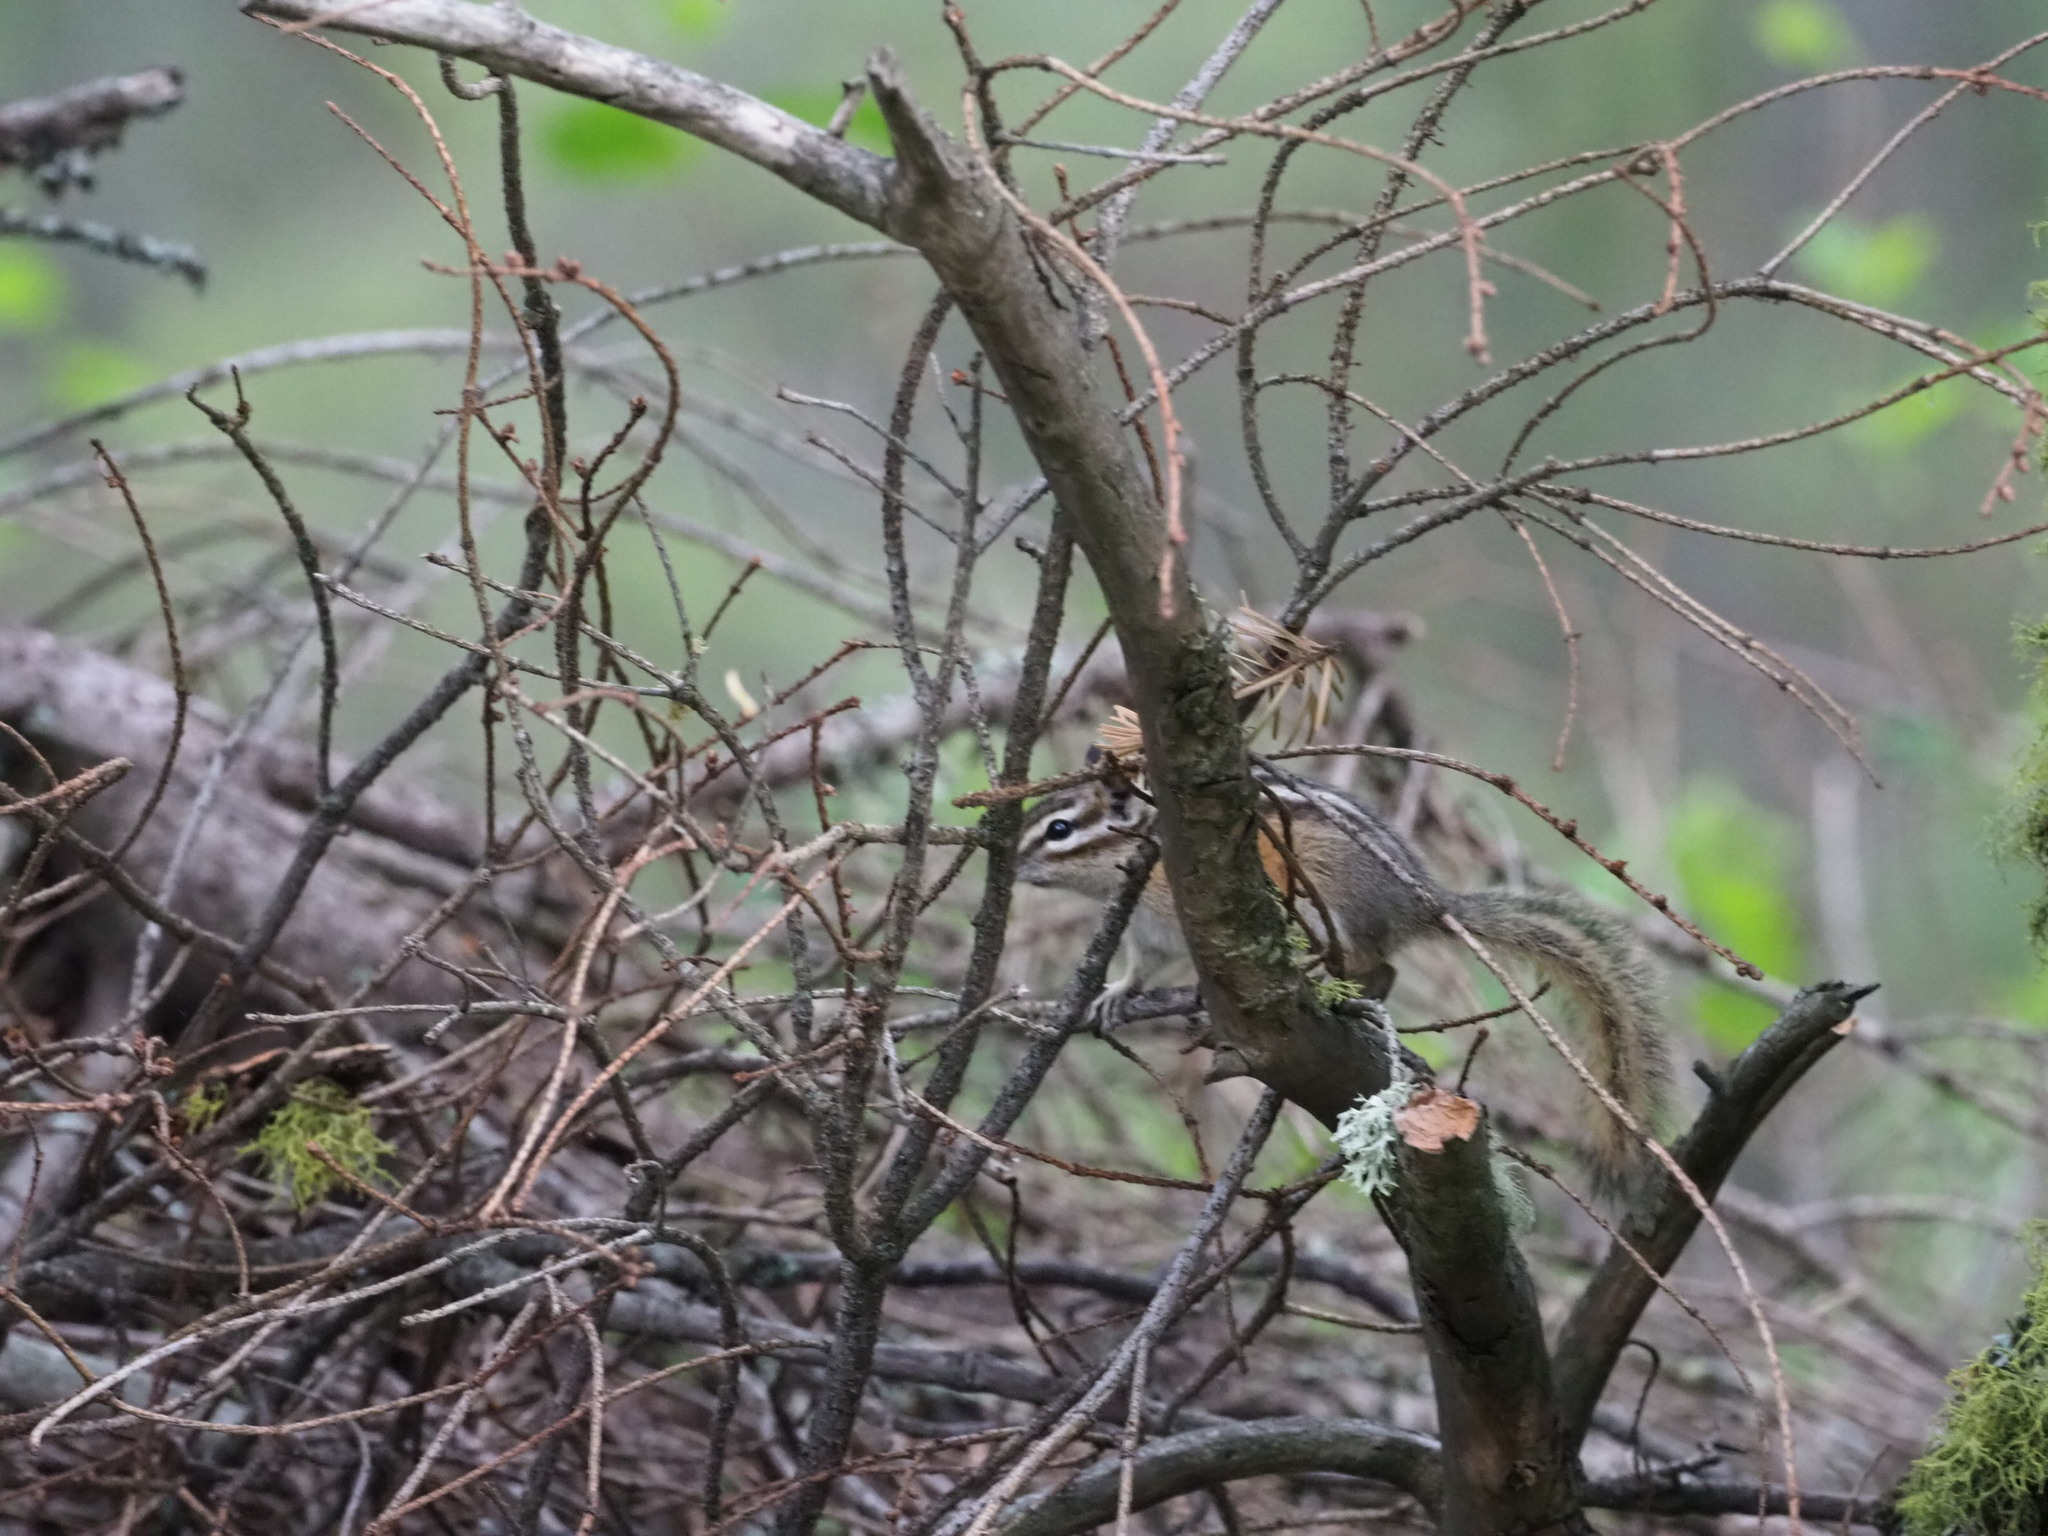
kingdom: Animalia
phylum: Chordata
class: Mammalia
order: Rodentia
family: Sciuridae
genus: Tamias
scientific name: Tamias amoenus
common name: Yellow-pine chipmunk
